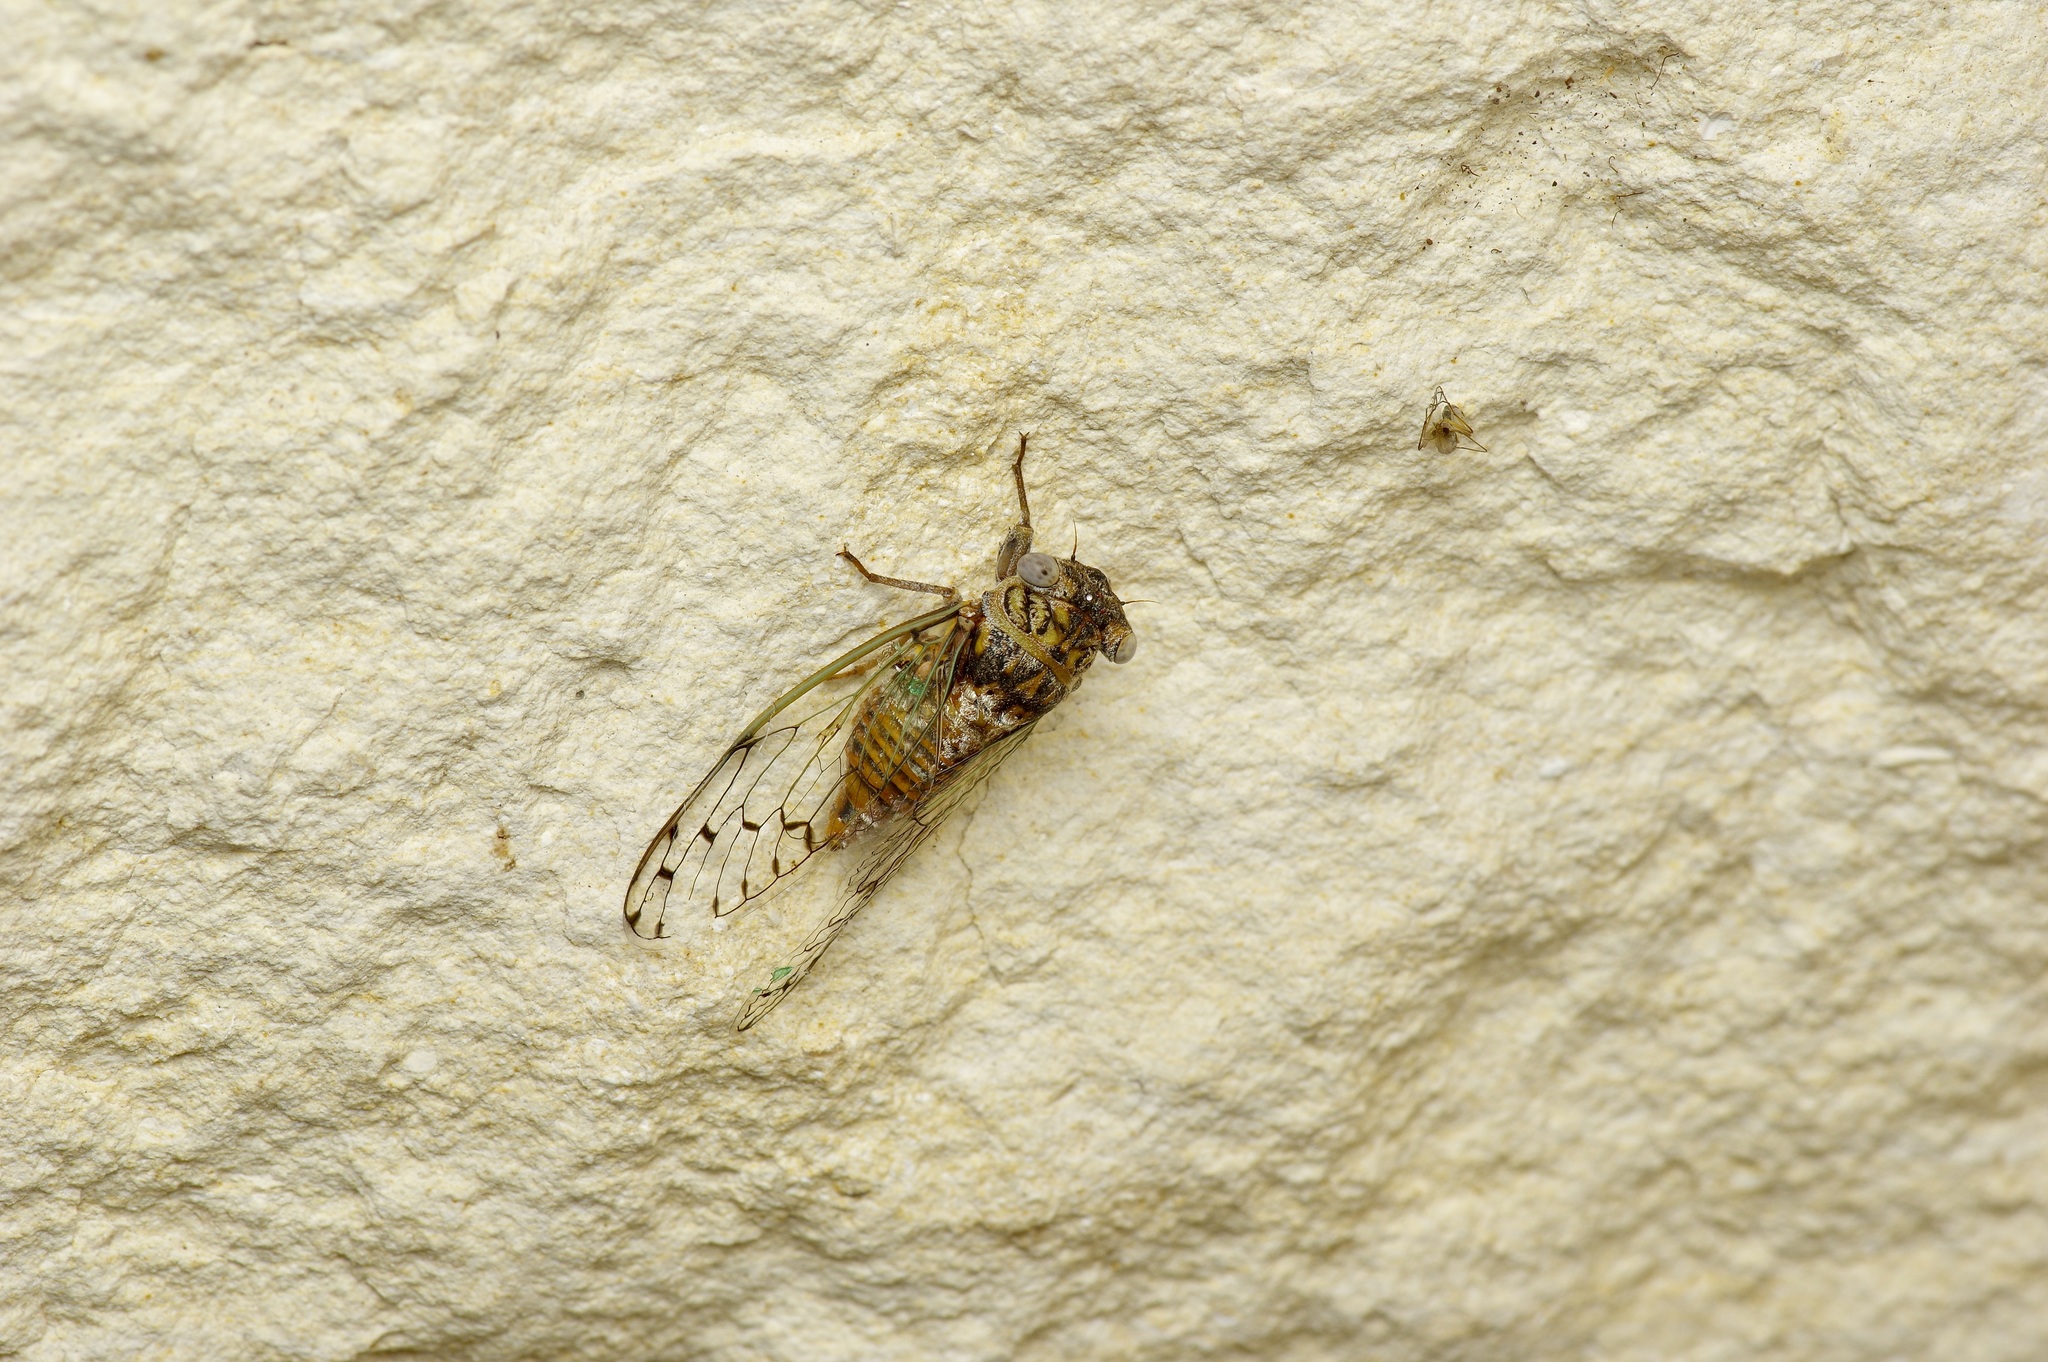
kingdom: Animalia
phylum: Arthropoda
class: Insecta
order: Hemiptera
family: Cicadidae
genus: Pacarina
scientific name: Pacarina puella
